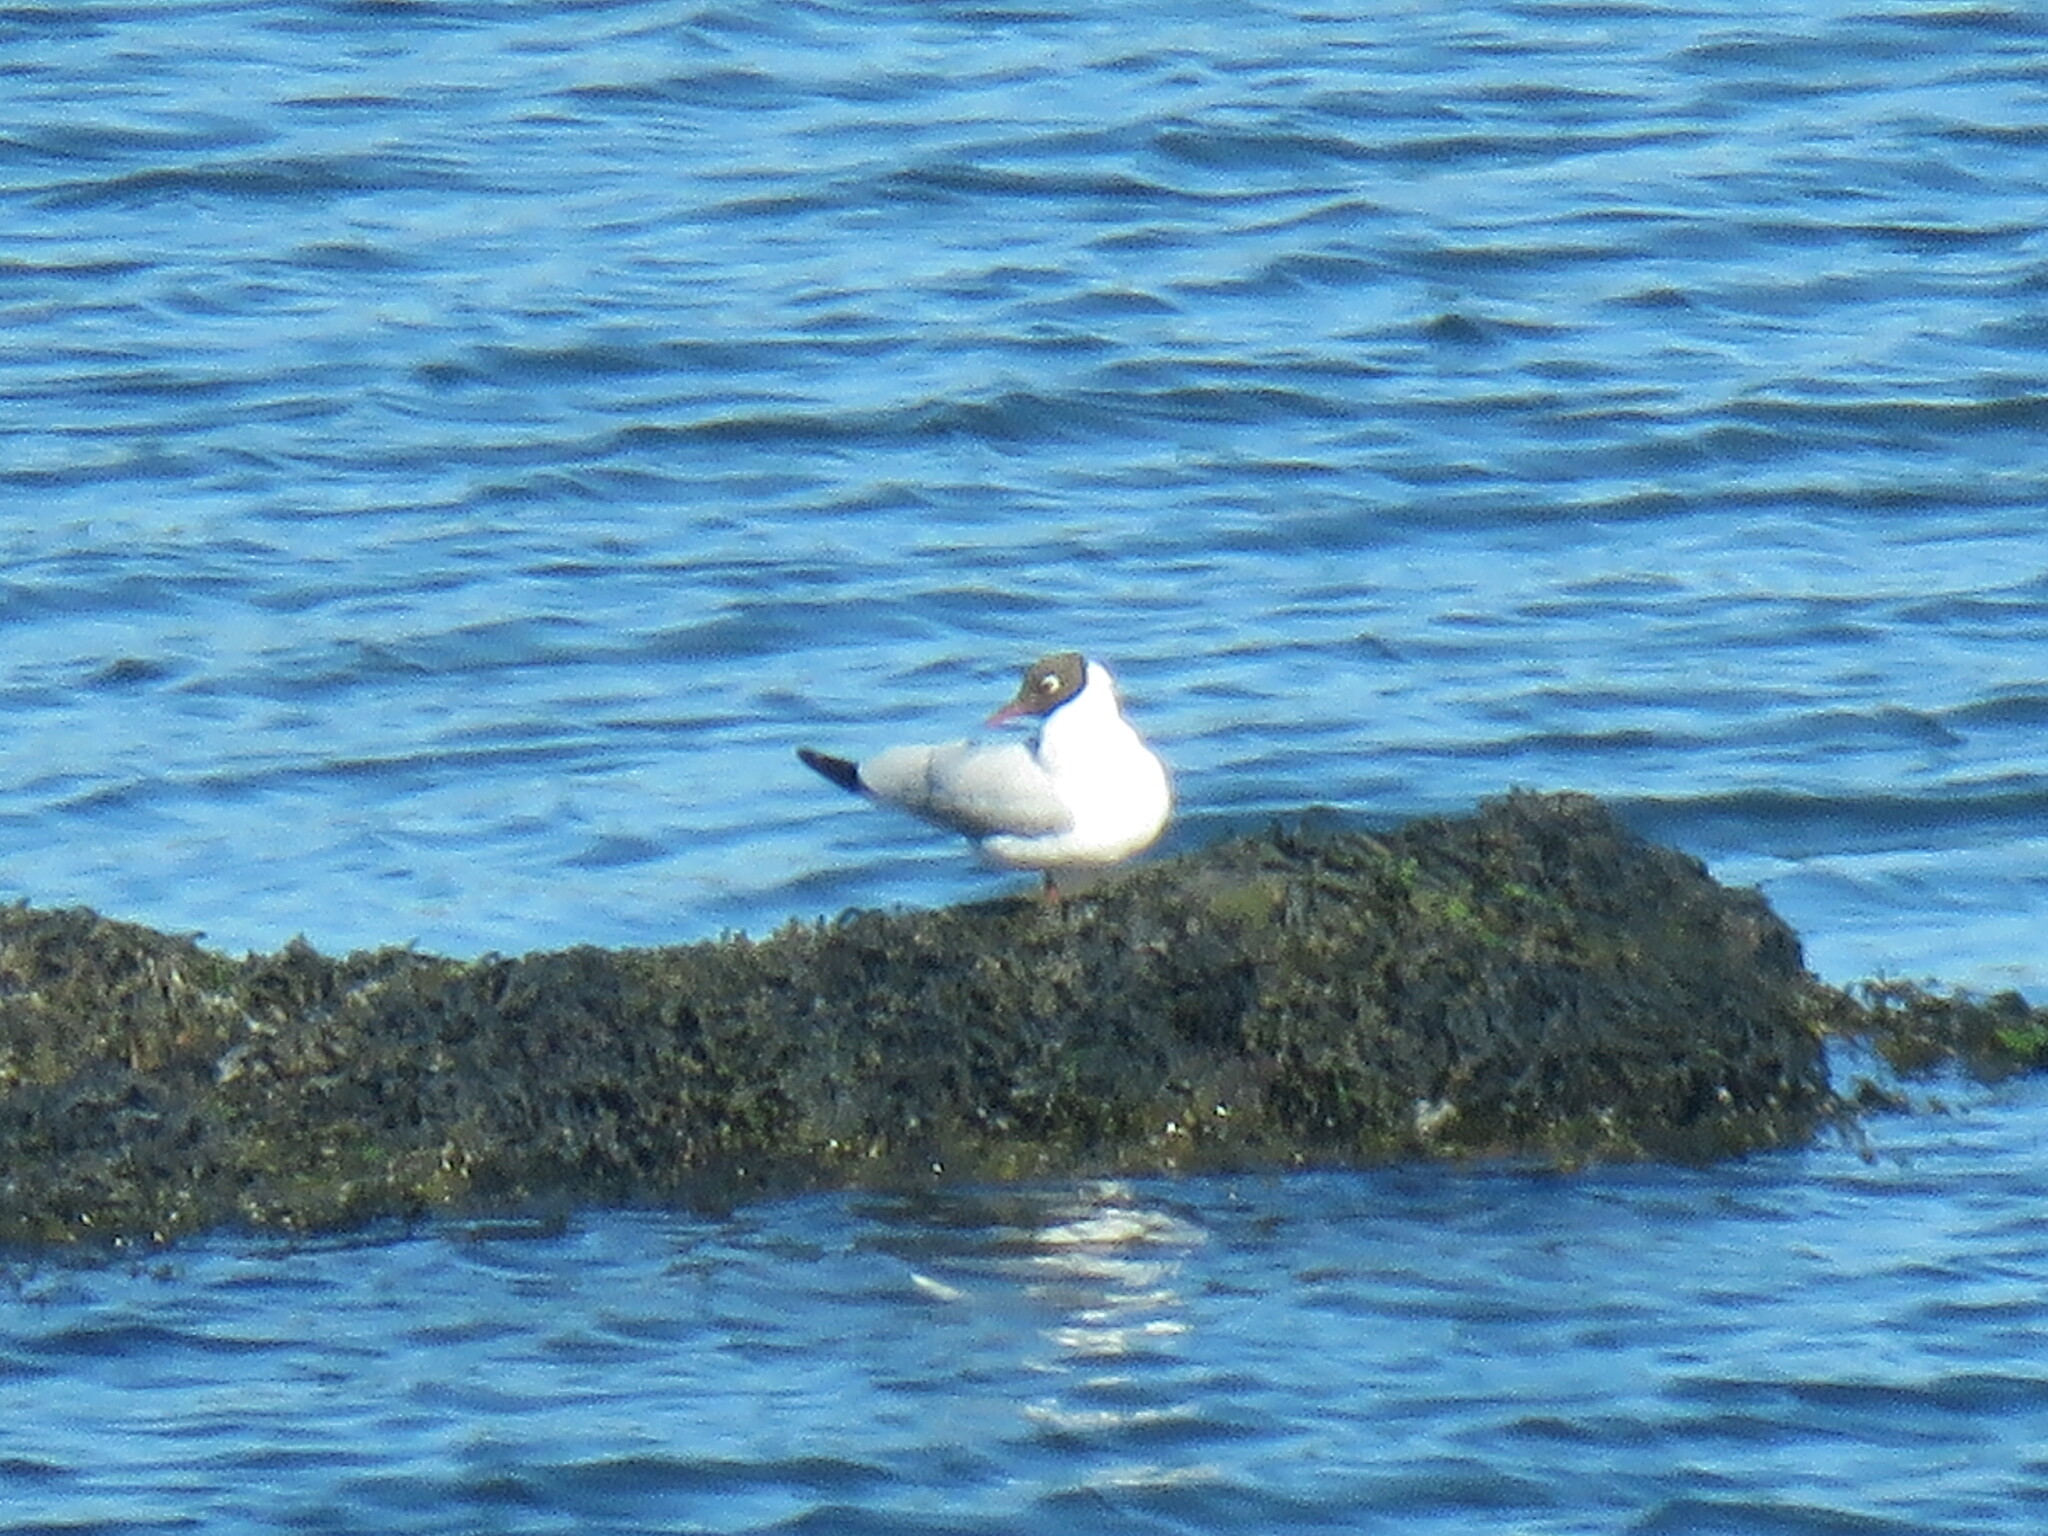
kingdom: Animalia
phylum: Chordata
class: Aves
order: Charadriiformes
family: Laridae
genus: Chroicocephalus
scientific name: Chroicocephalus ridibundus
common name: Black-headed gull
